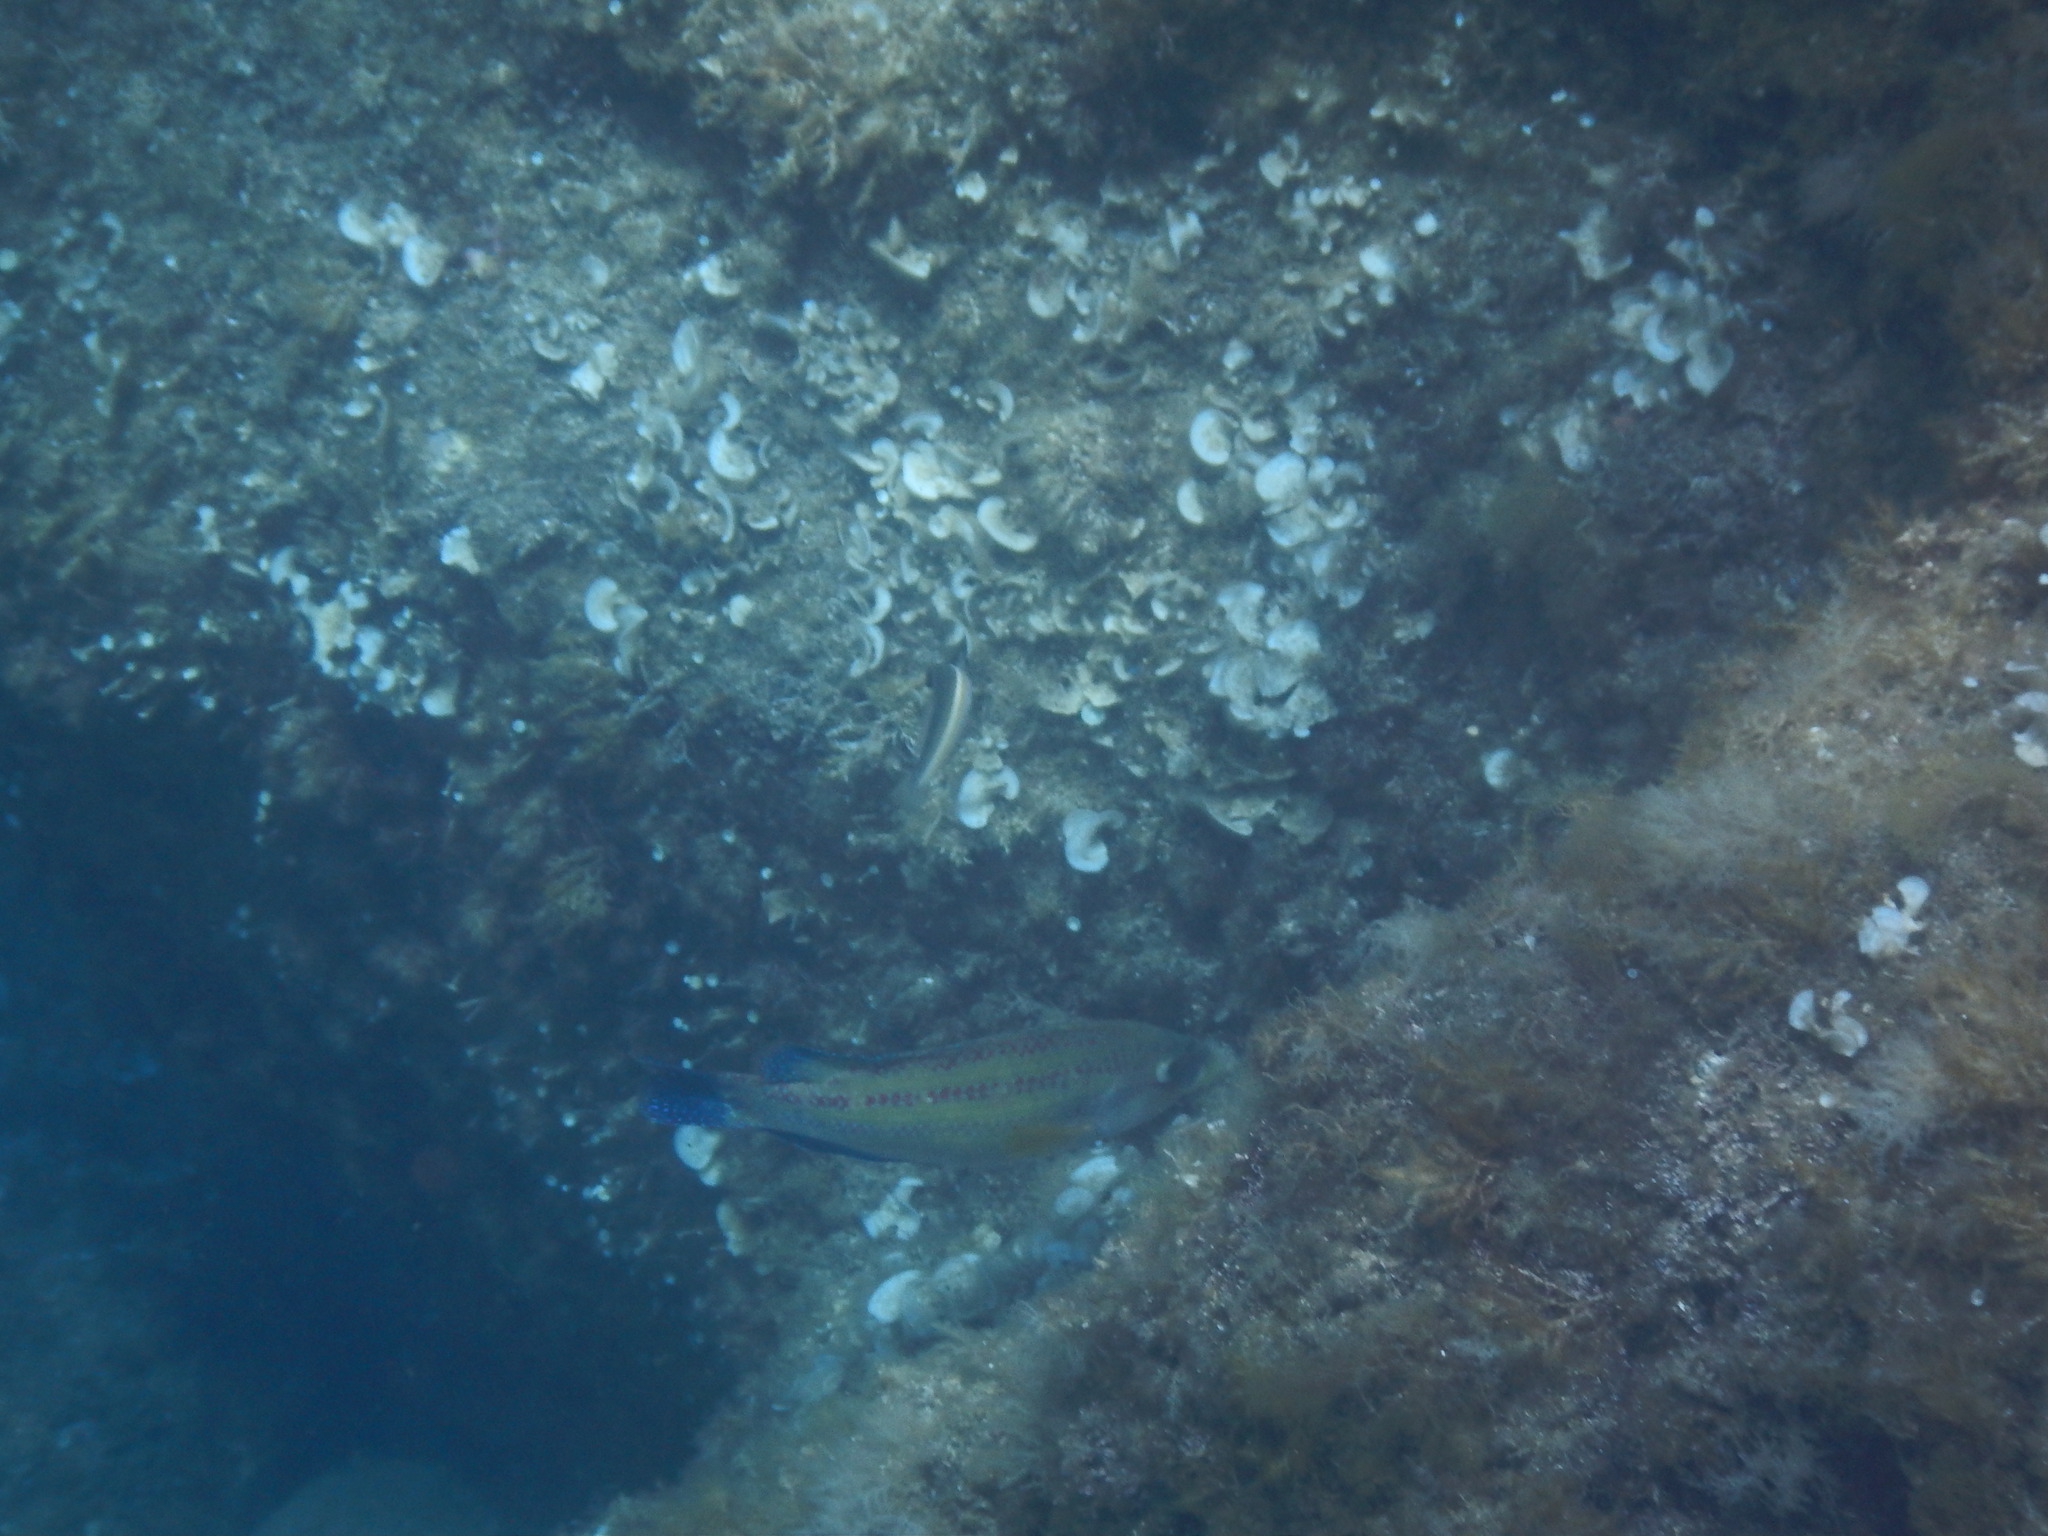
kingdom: Animalia
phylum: Chordata
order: Perciformes
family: Labridae
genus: Symphodus
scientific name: Symphodus tinca
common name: Peacock wrasse
